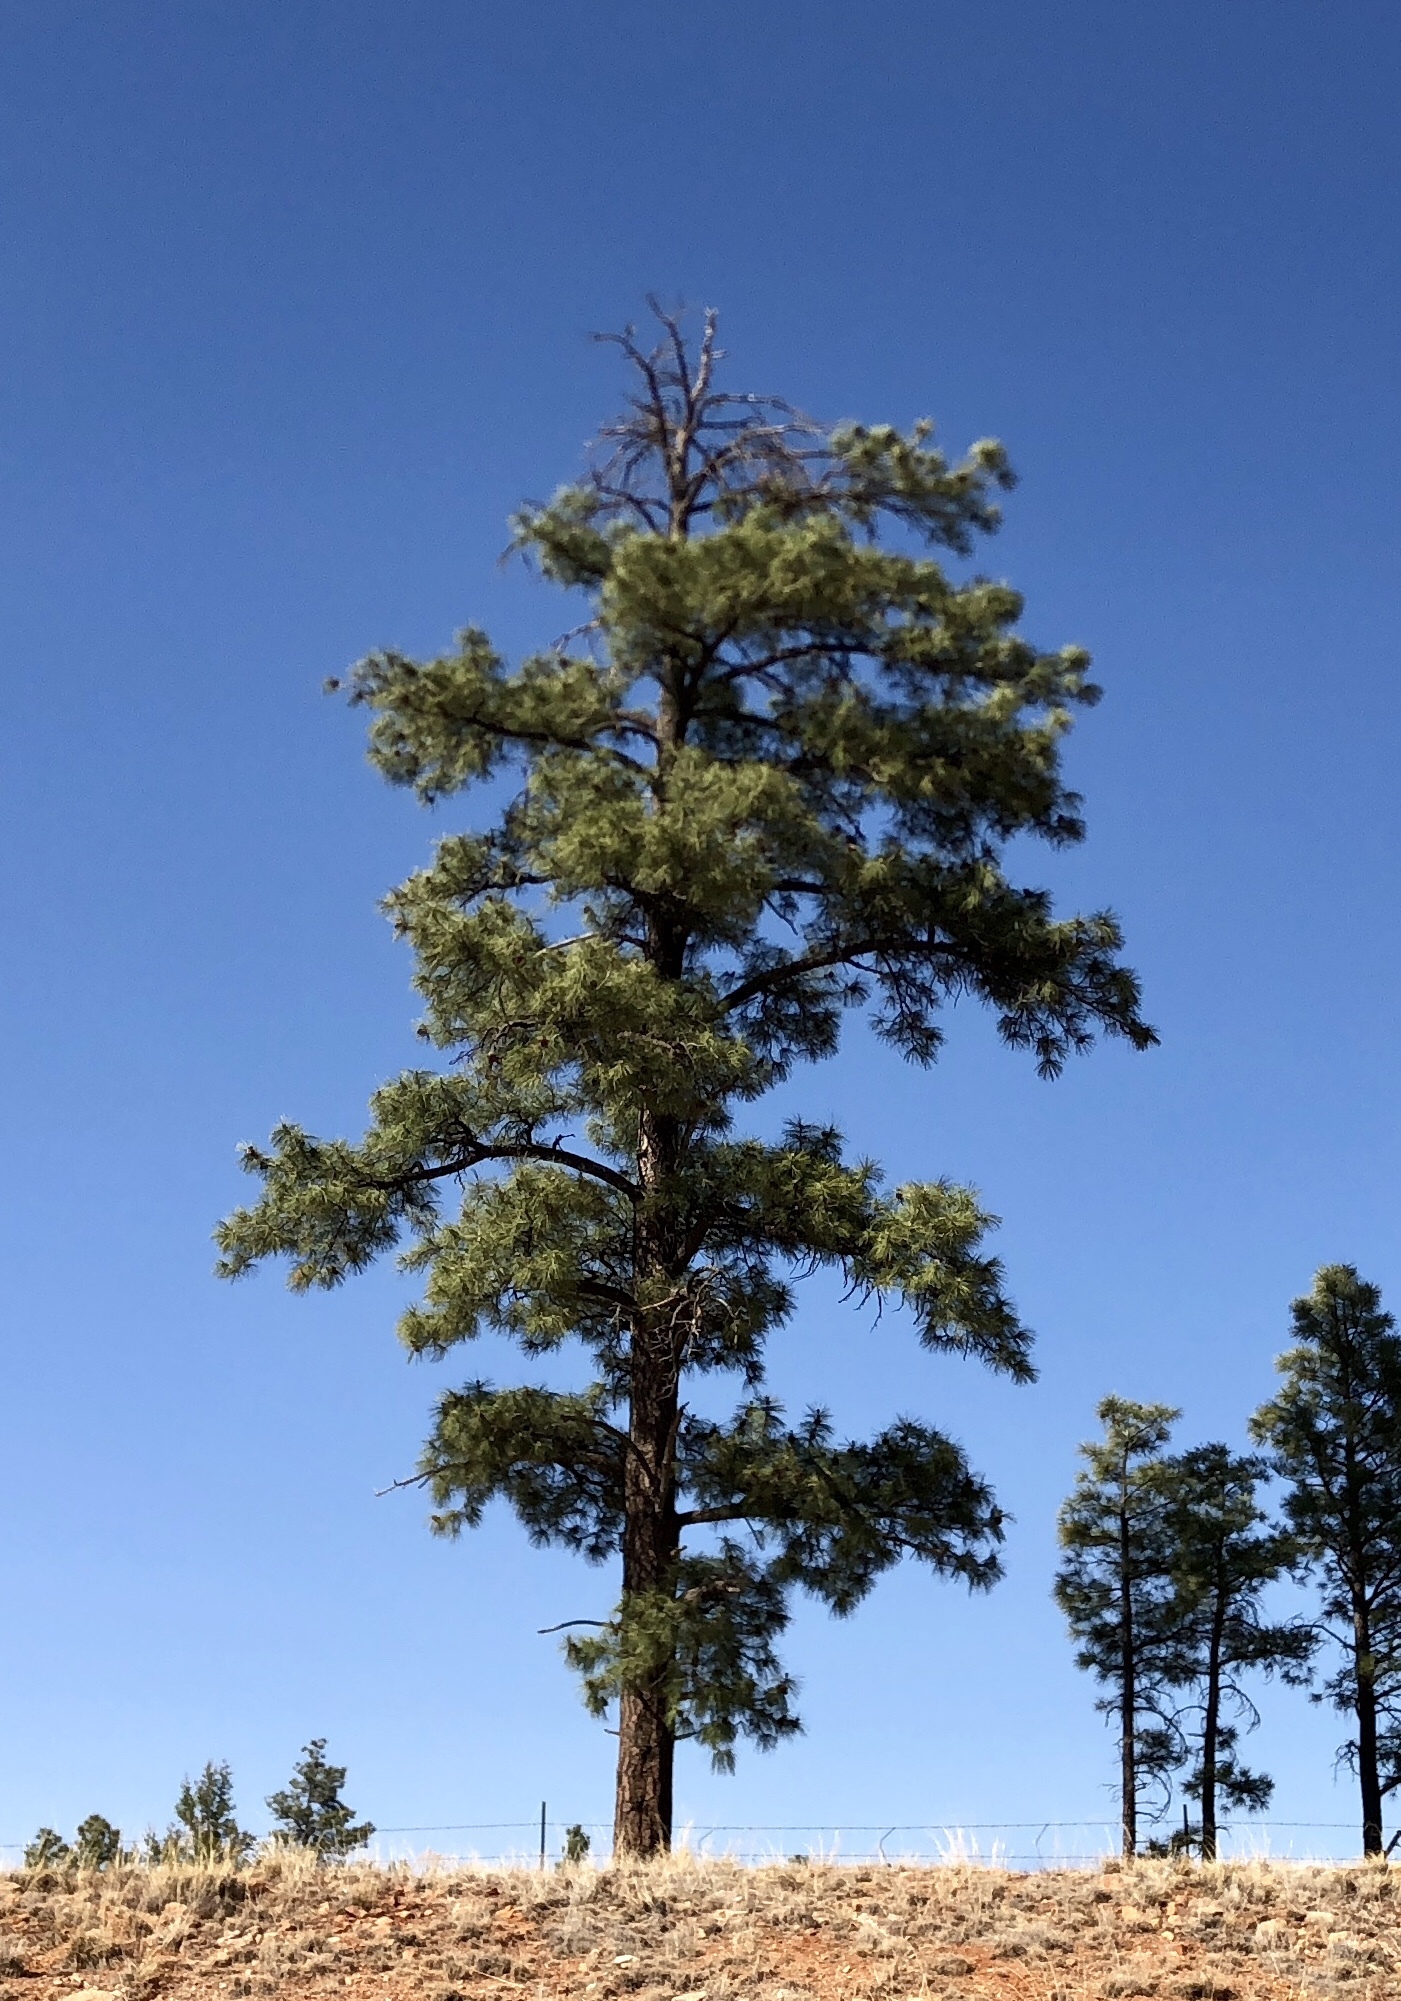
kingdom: Plantae
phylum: Tracheophyta
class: Pinopsida
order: Pinales
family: Pinaceae
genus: Pinus
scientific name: Pinus ponderosa
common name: Western yellow-pine
